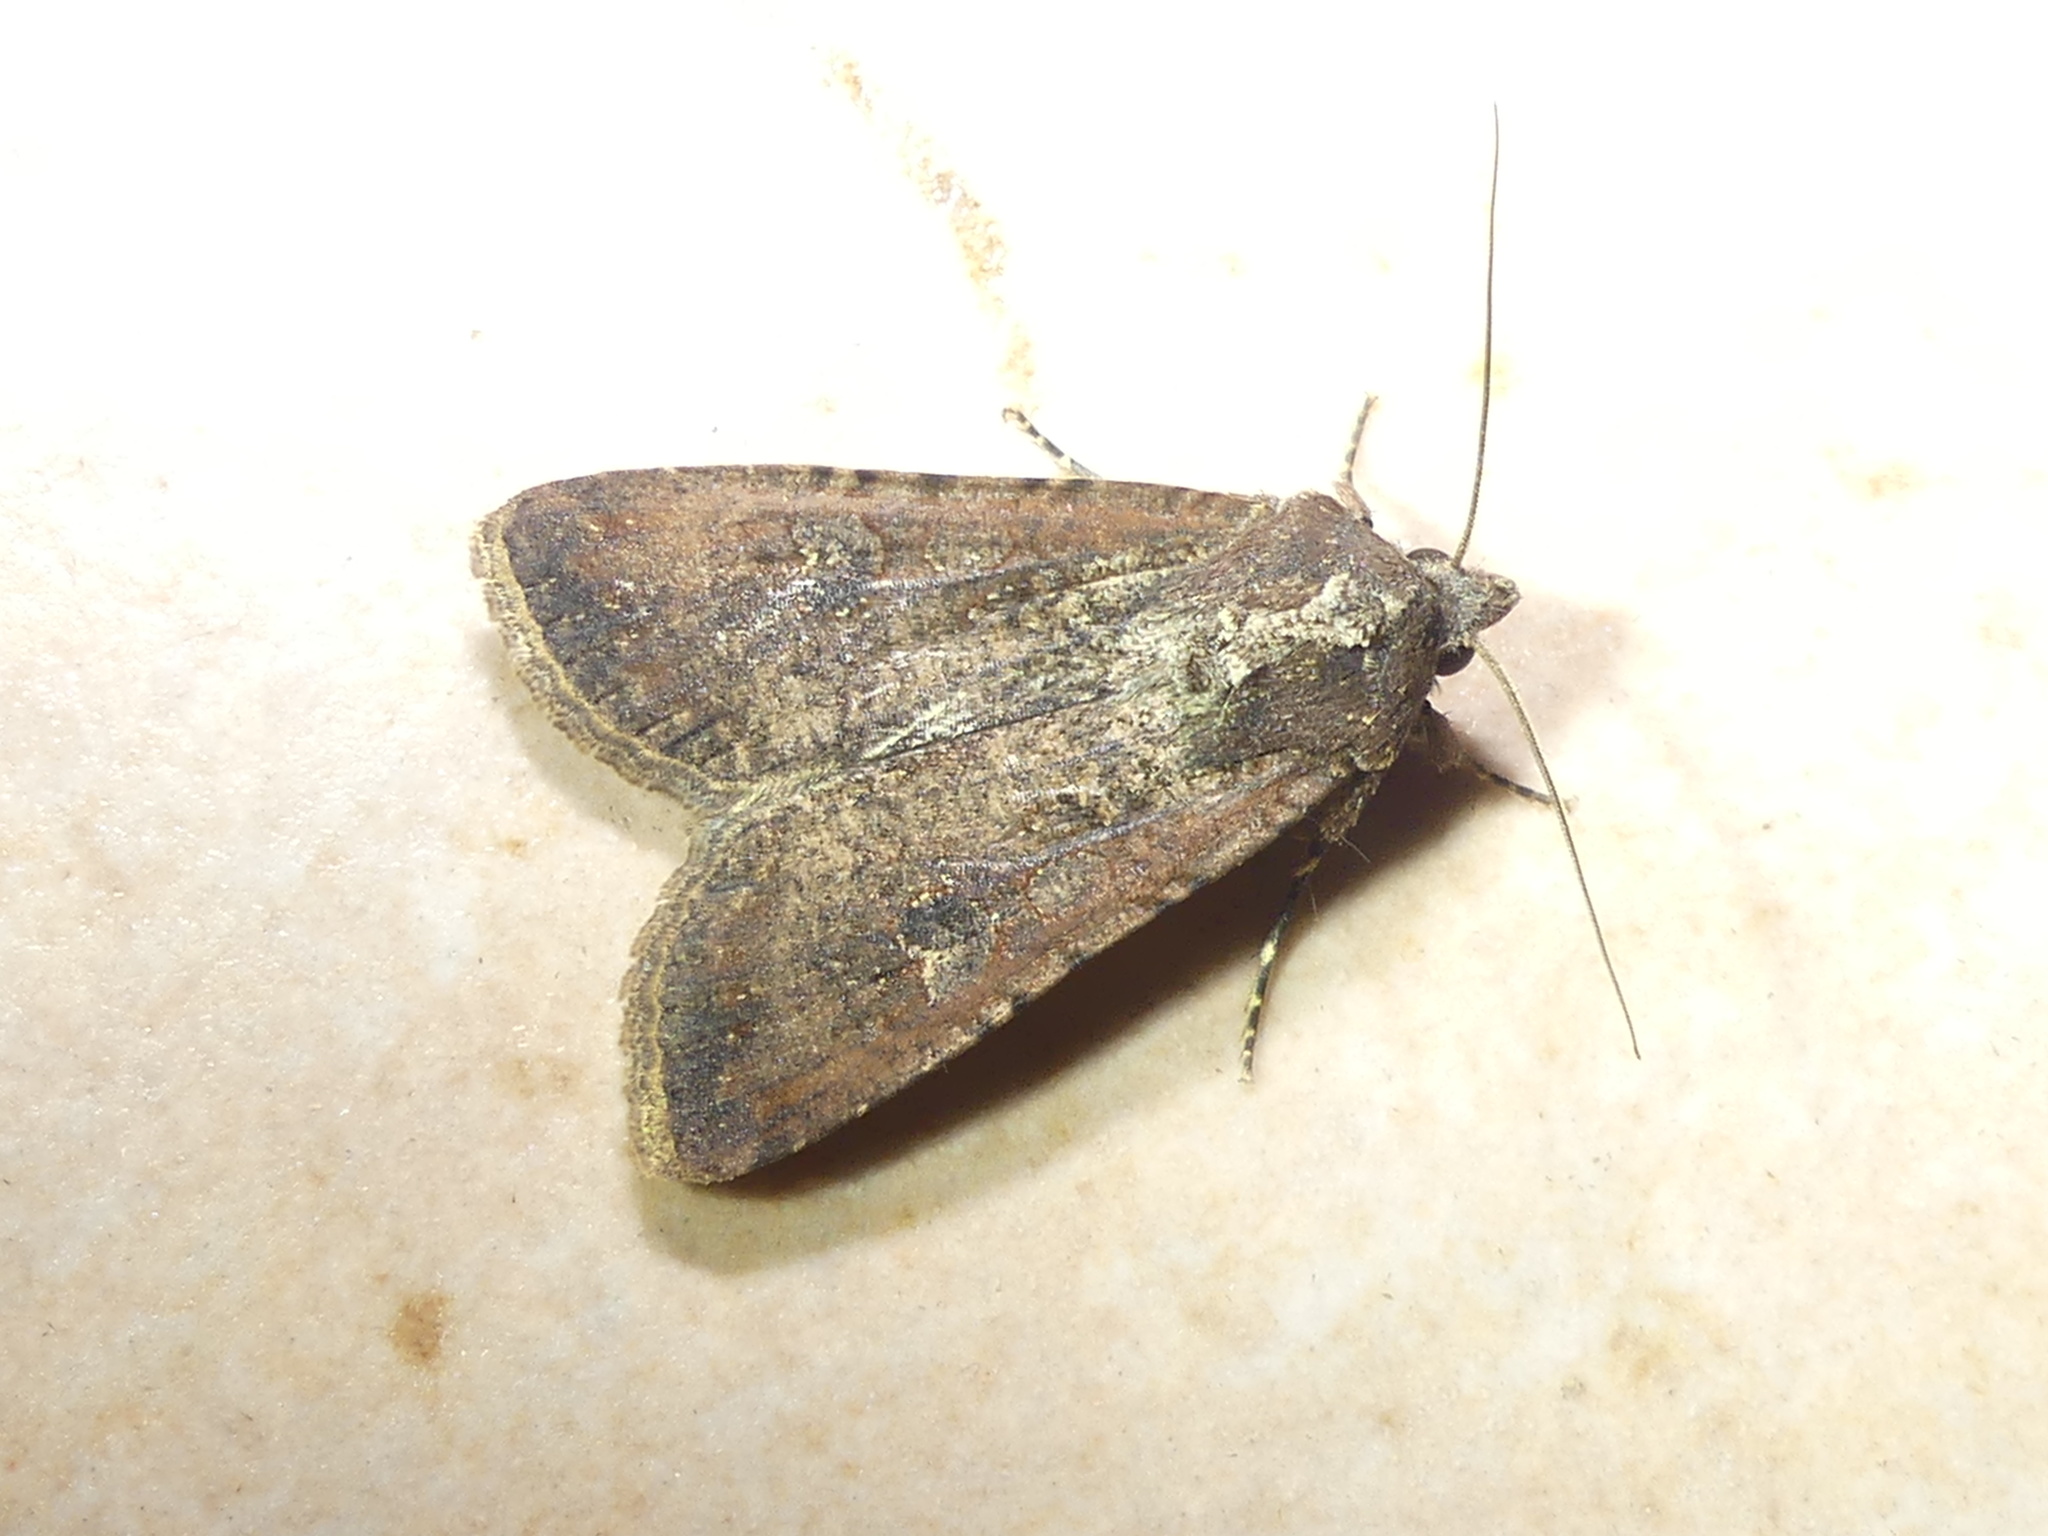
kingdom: Animalia
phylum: Arthropoda
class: Insecta
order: Lepidoptera
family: Noctuidae
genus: Peridroma
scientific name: Peridroma saucia
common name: Pearly underwing
